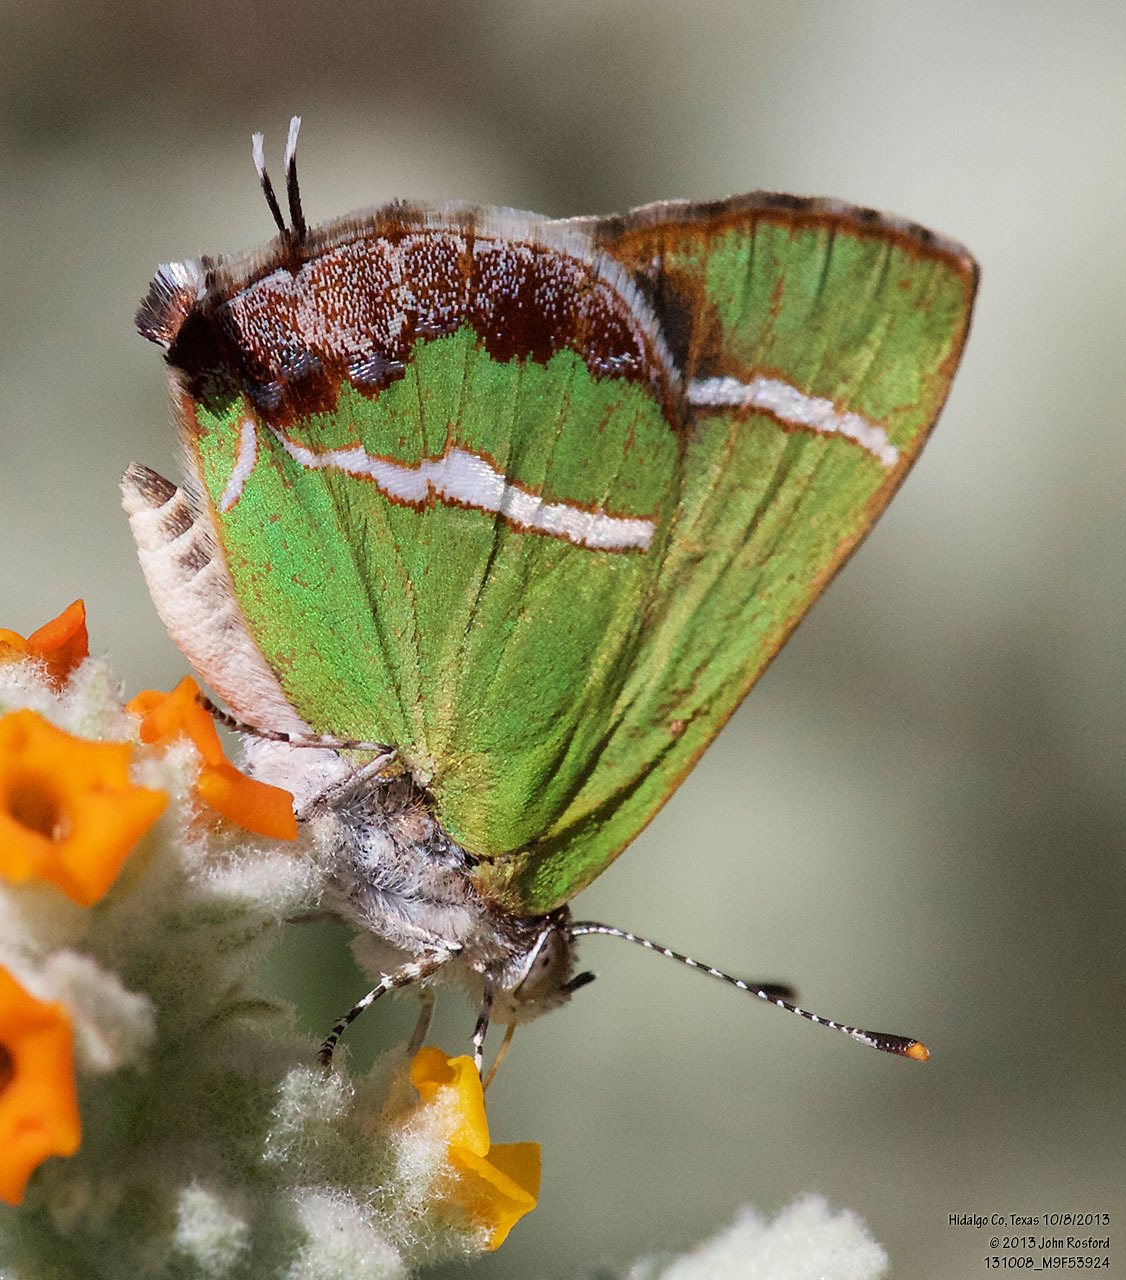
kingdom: Animalia
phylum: Arthropoda
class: Insecta
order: Lepidoptera
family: Lycaenidae
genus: Chlorostrymon
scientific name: Chlorostrymon simaethis
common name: Silver-banded hairstreak
